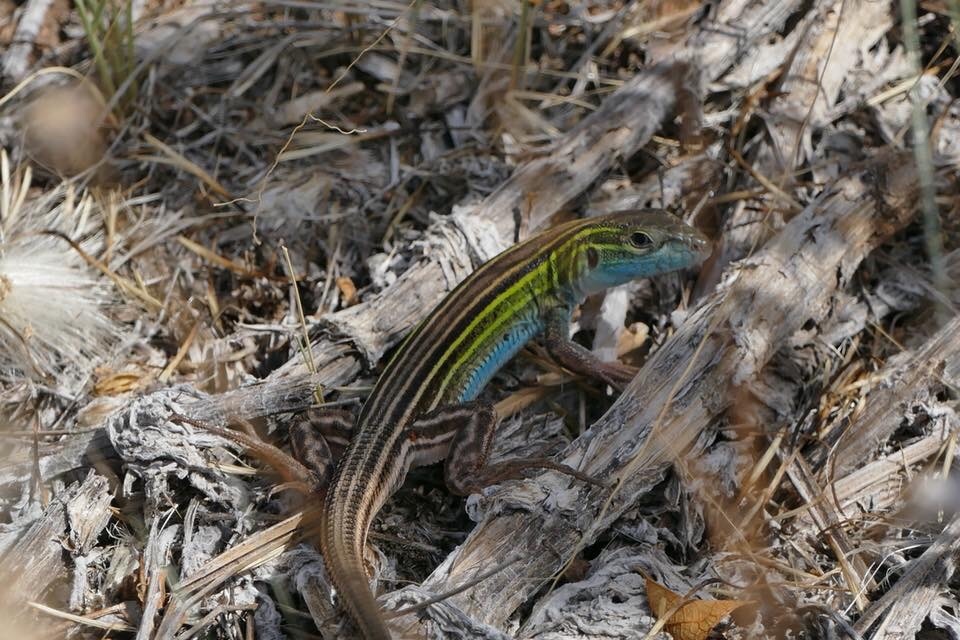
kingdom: Animalia
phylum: Chordata
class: Squamata
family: Teiidae
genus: Aspidoscelis
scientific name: Aspidoscelis sexlineatus
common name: Six-lined racerunner
